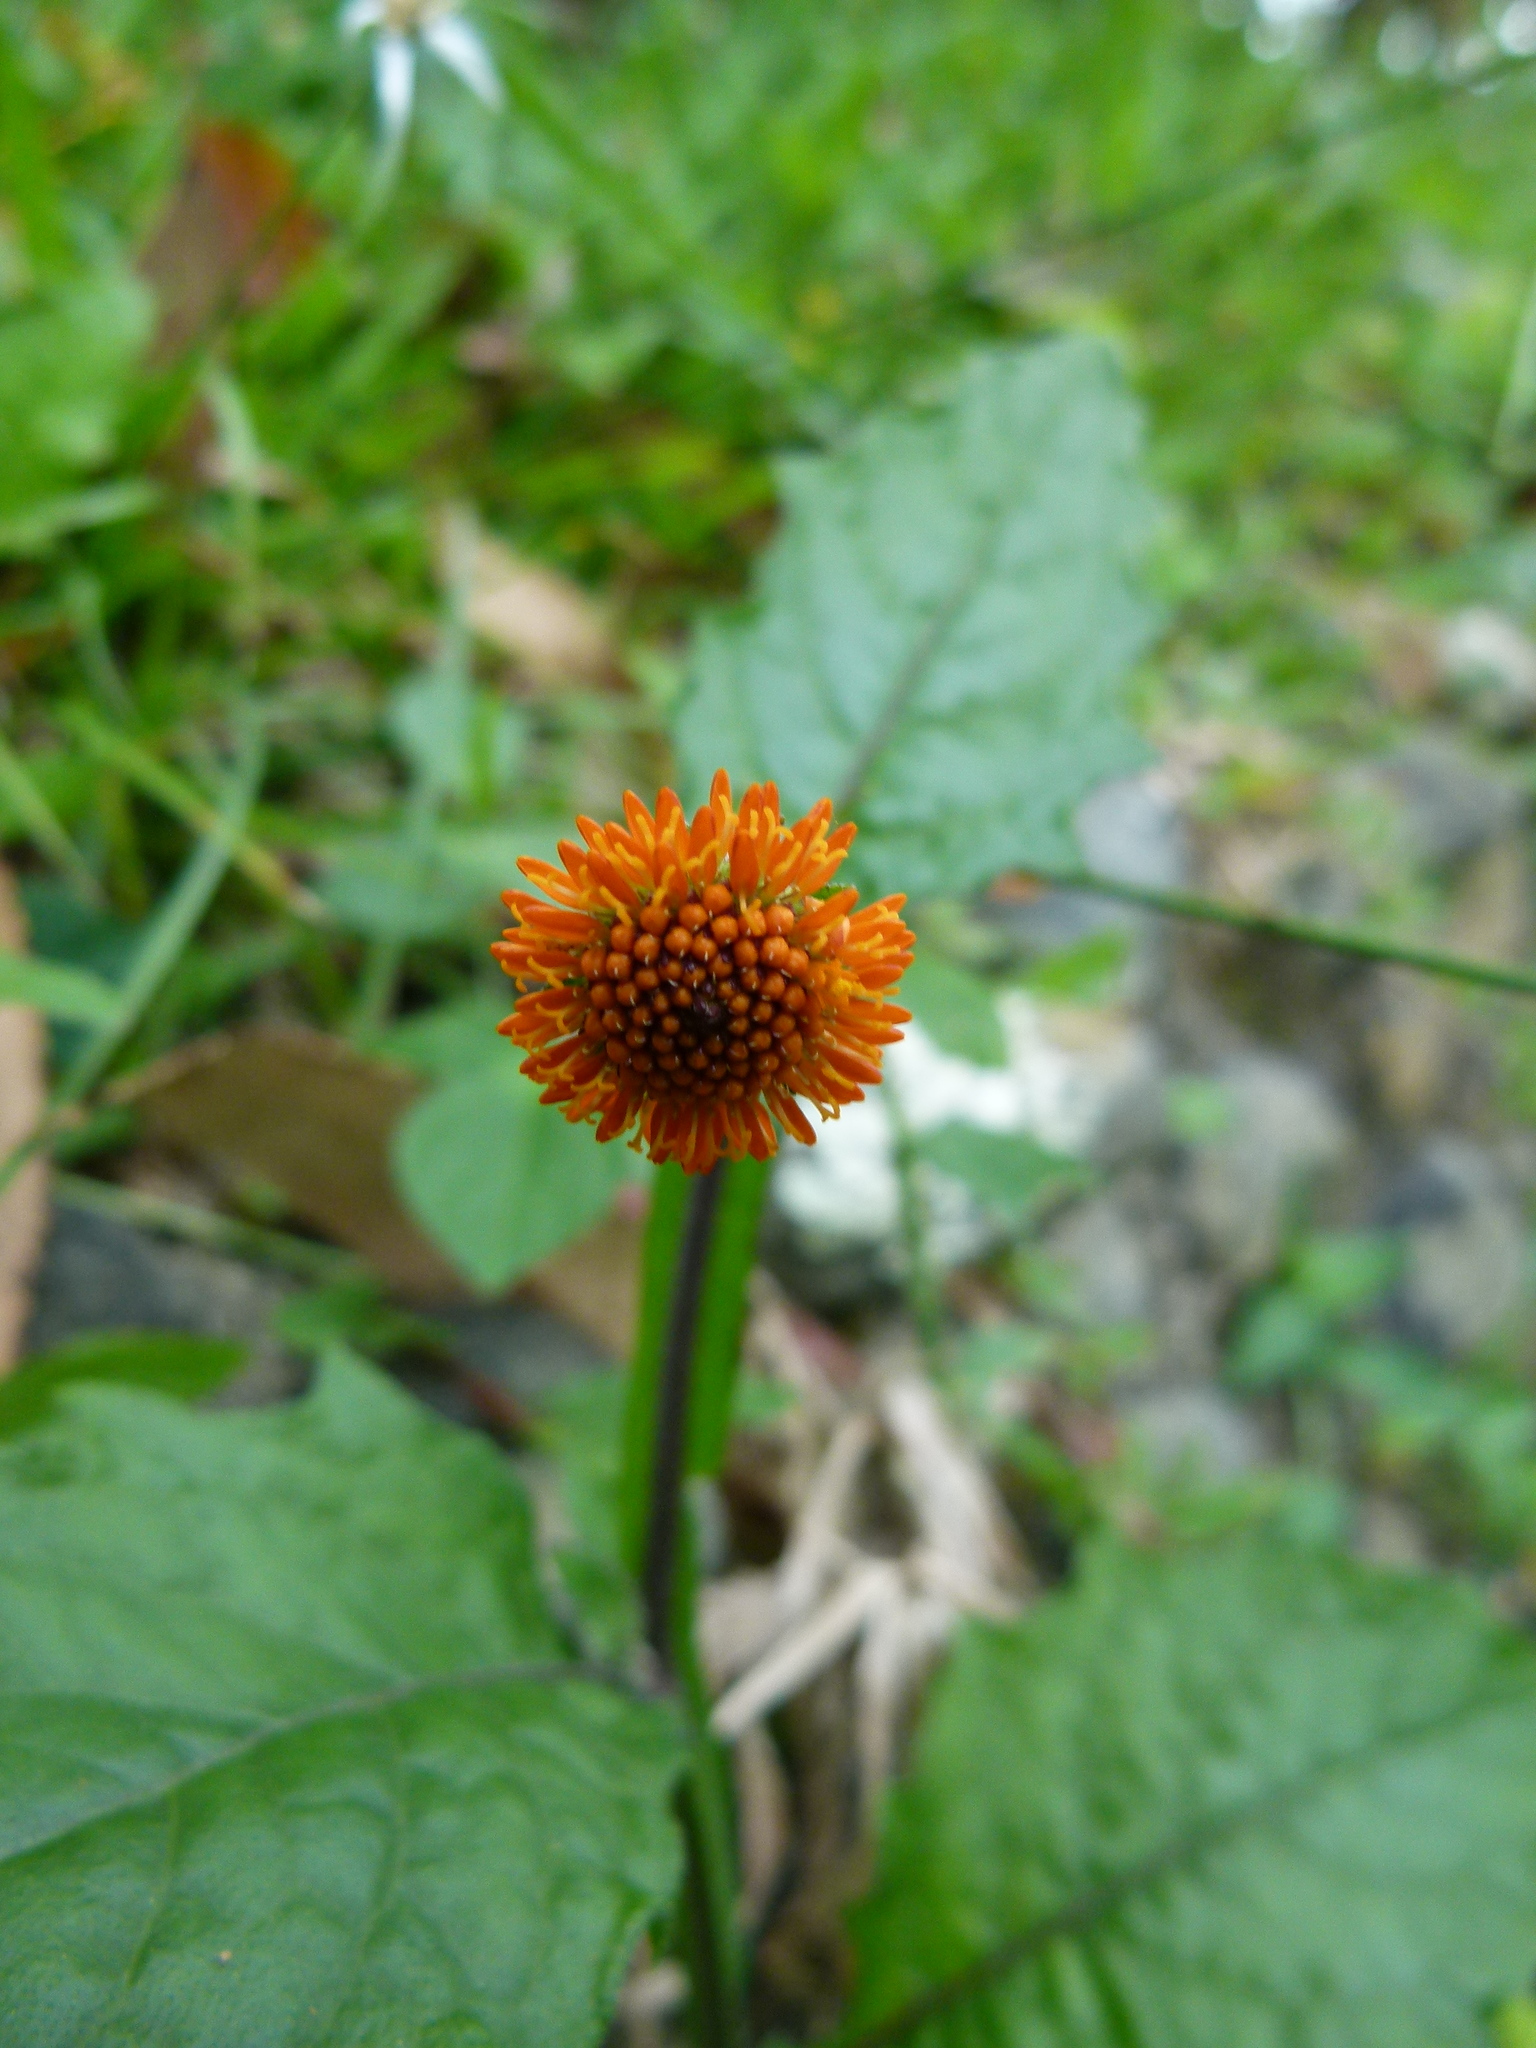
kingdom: Plantae
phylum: Tracheophyta
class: Magnoliopsida
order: Asterales
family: Asteraceae
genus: Verbesina
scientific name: Verbesina alata
